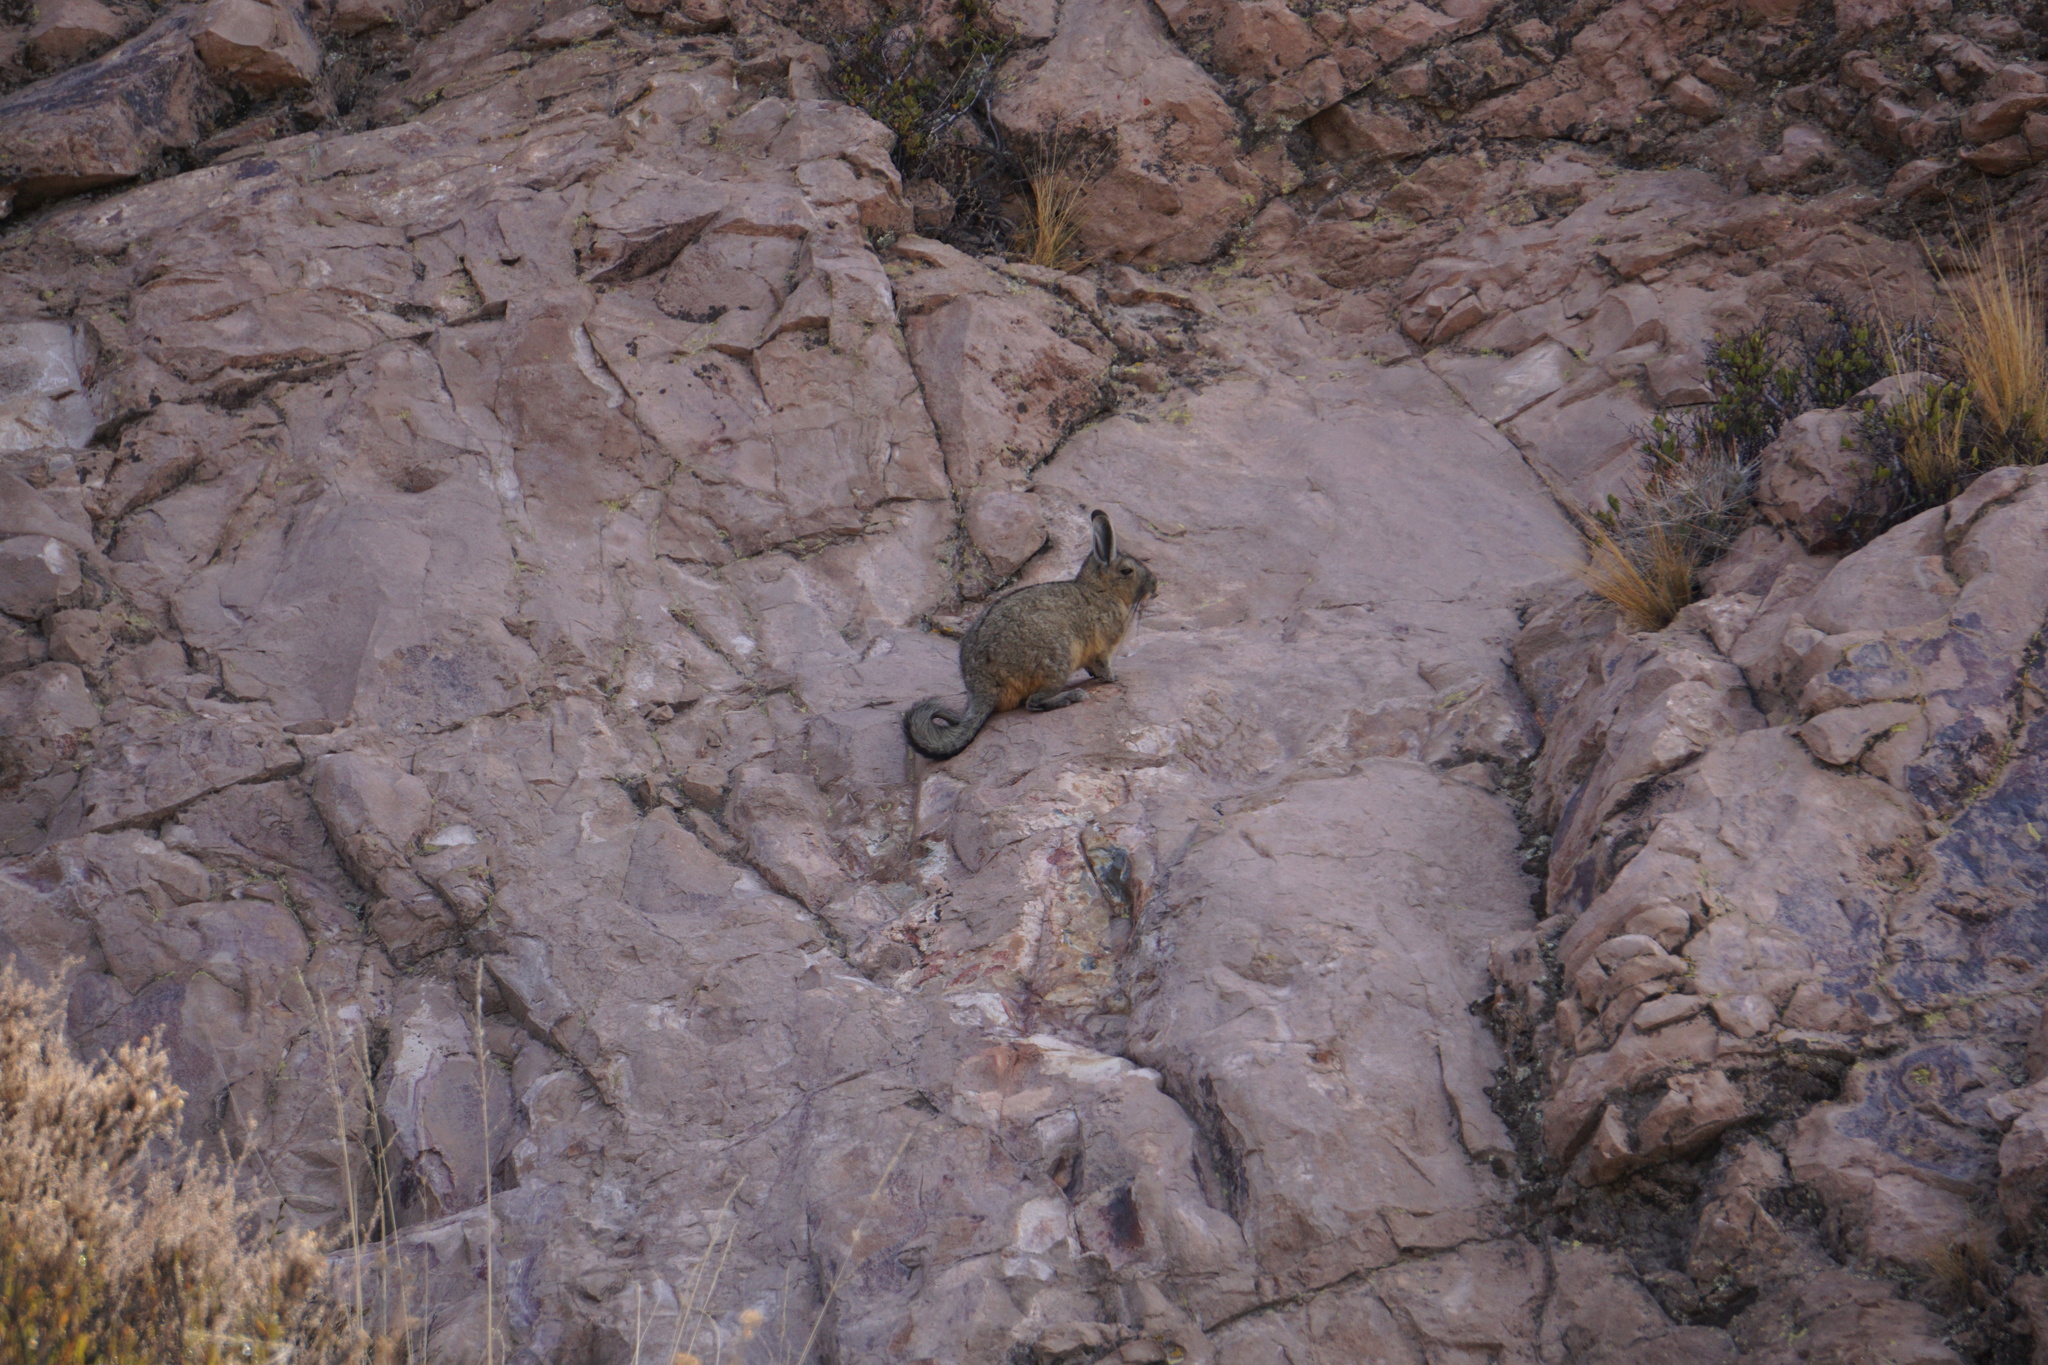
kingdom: Animalia
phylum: Chordata
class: Mammalia
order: Rodentia
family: Chinchillidae
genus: Lagidium
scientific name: Lagidium viscacia
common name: Southern viscacha
